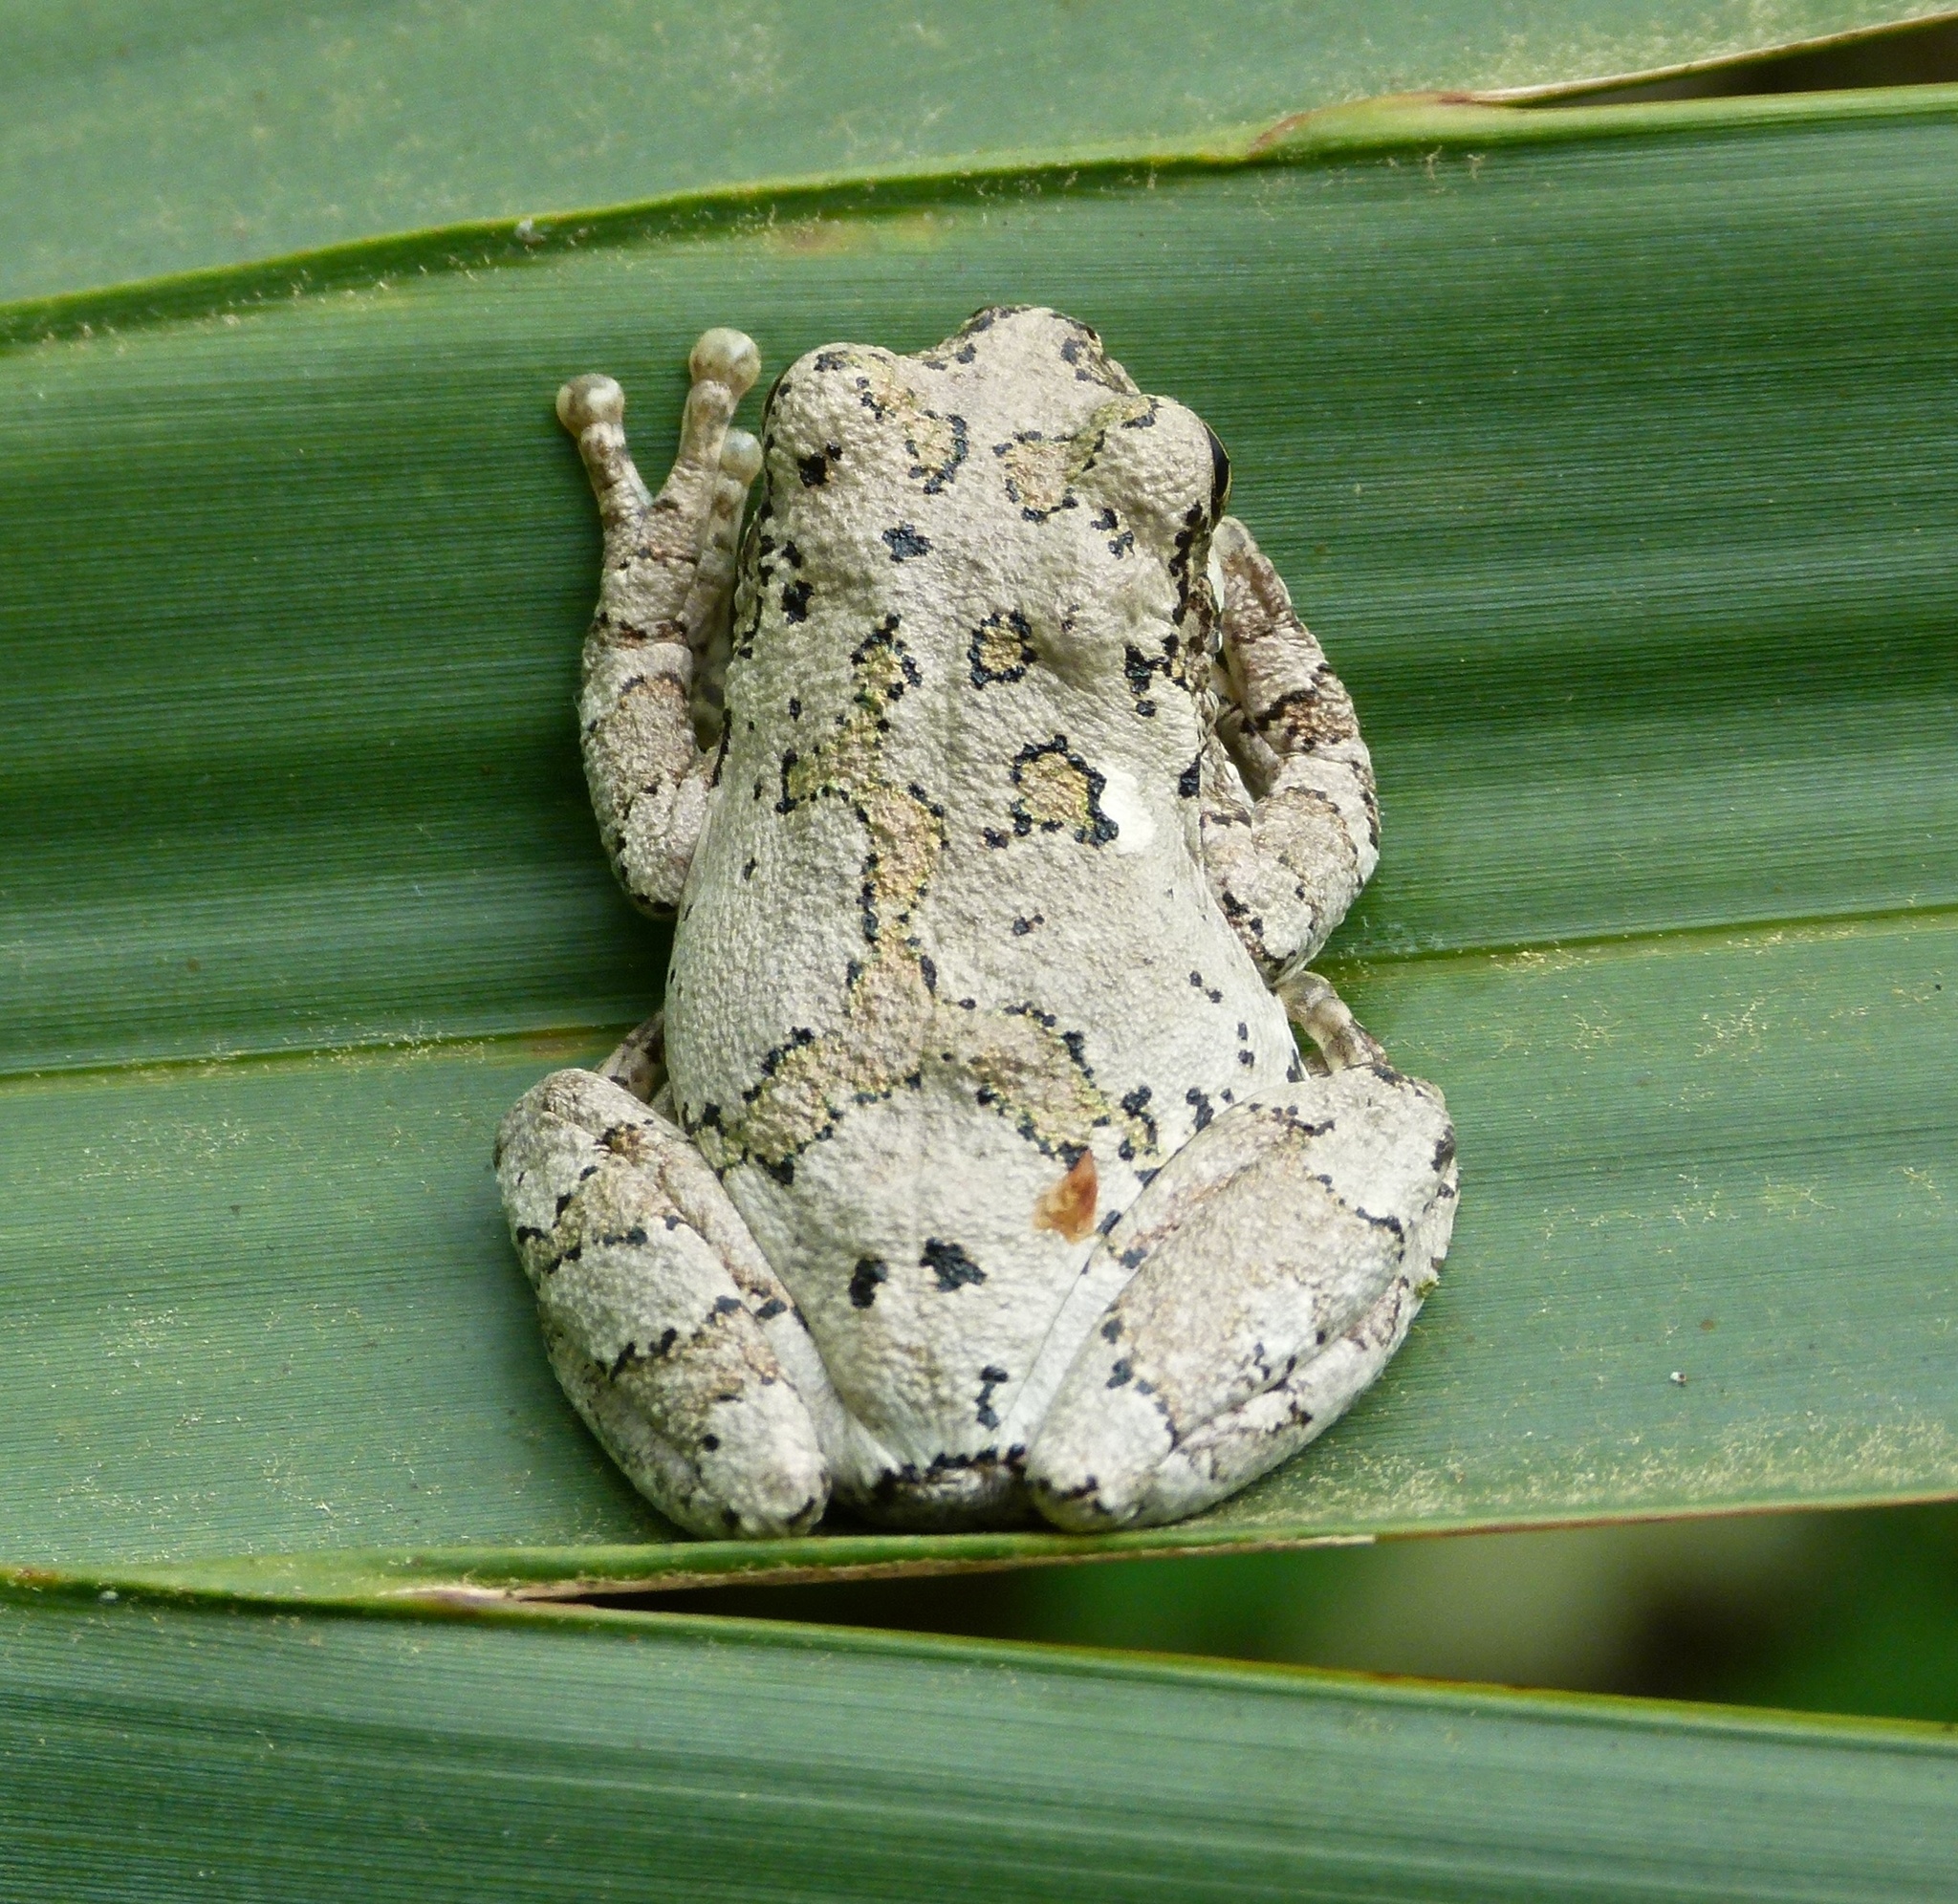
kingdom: Animalia
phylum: Chordata
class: Amphibia
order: Anura
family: Hylidae
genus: Hyla
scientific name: Hyla
